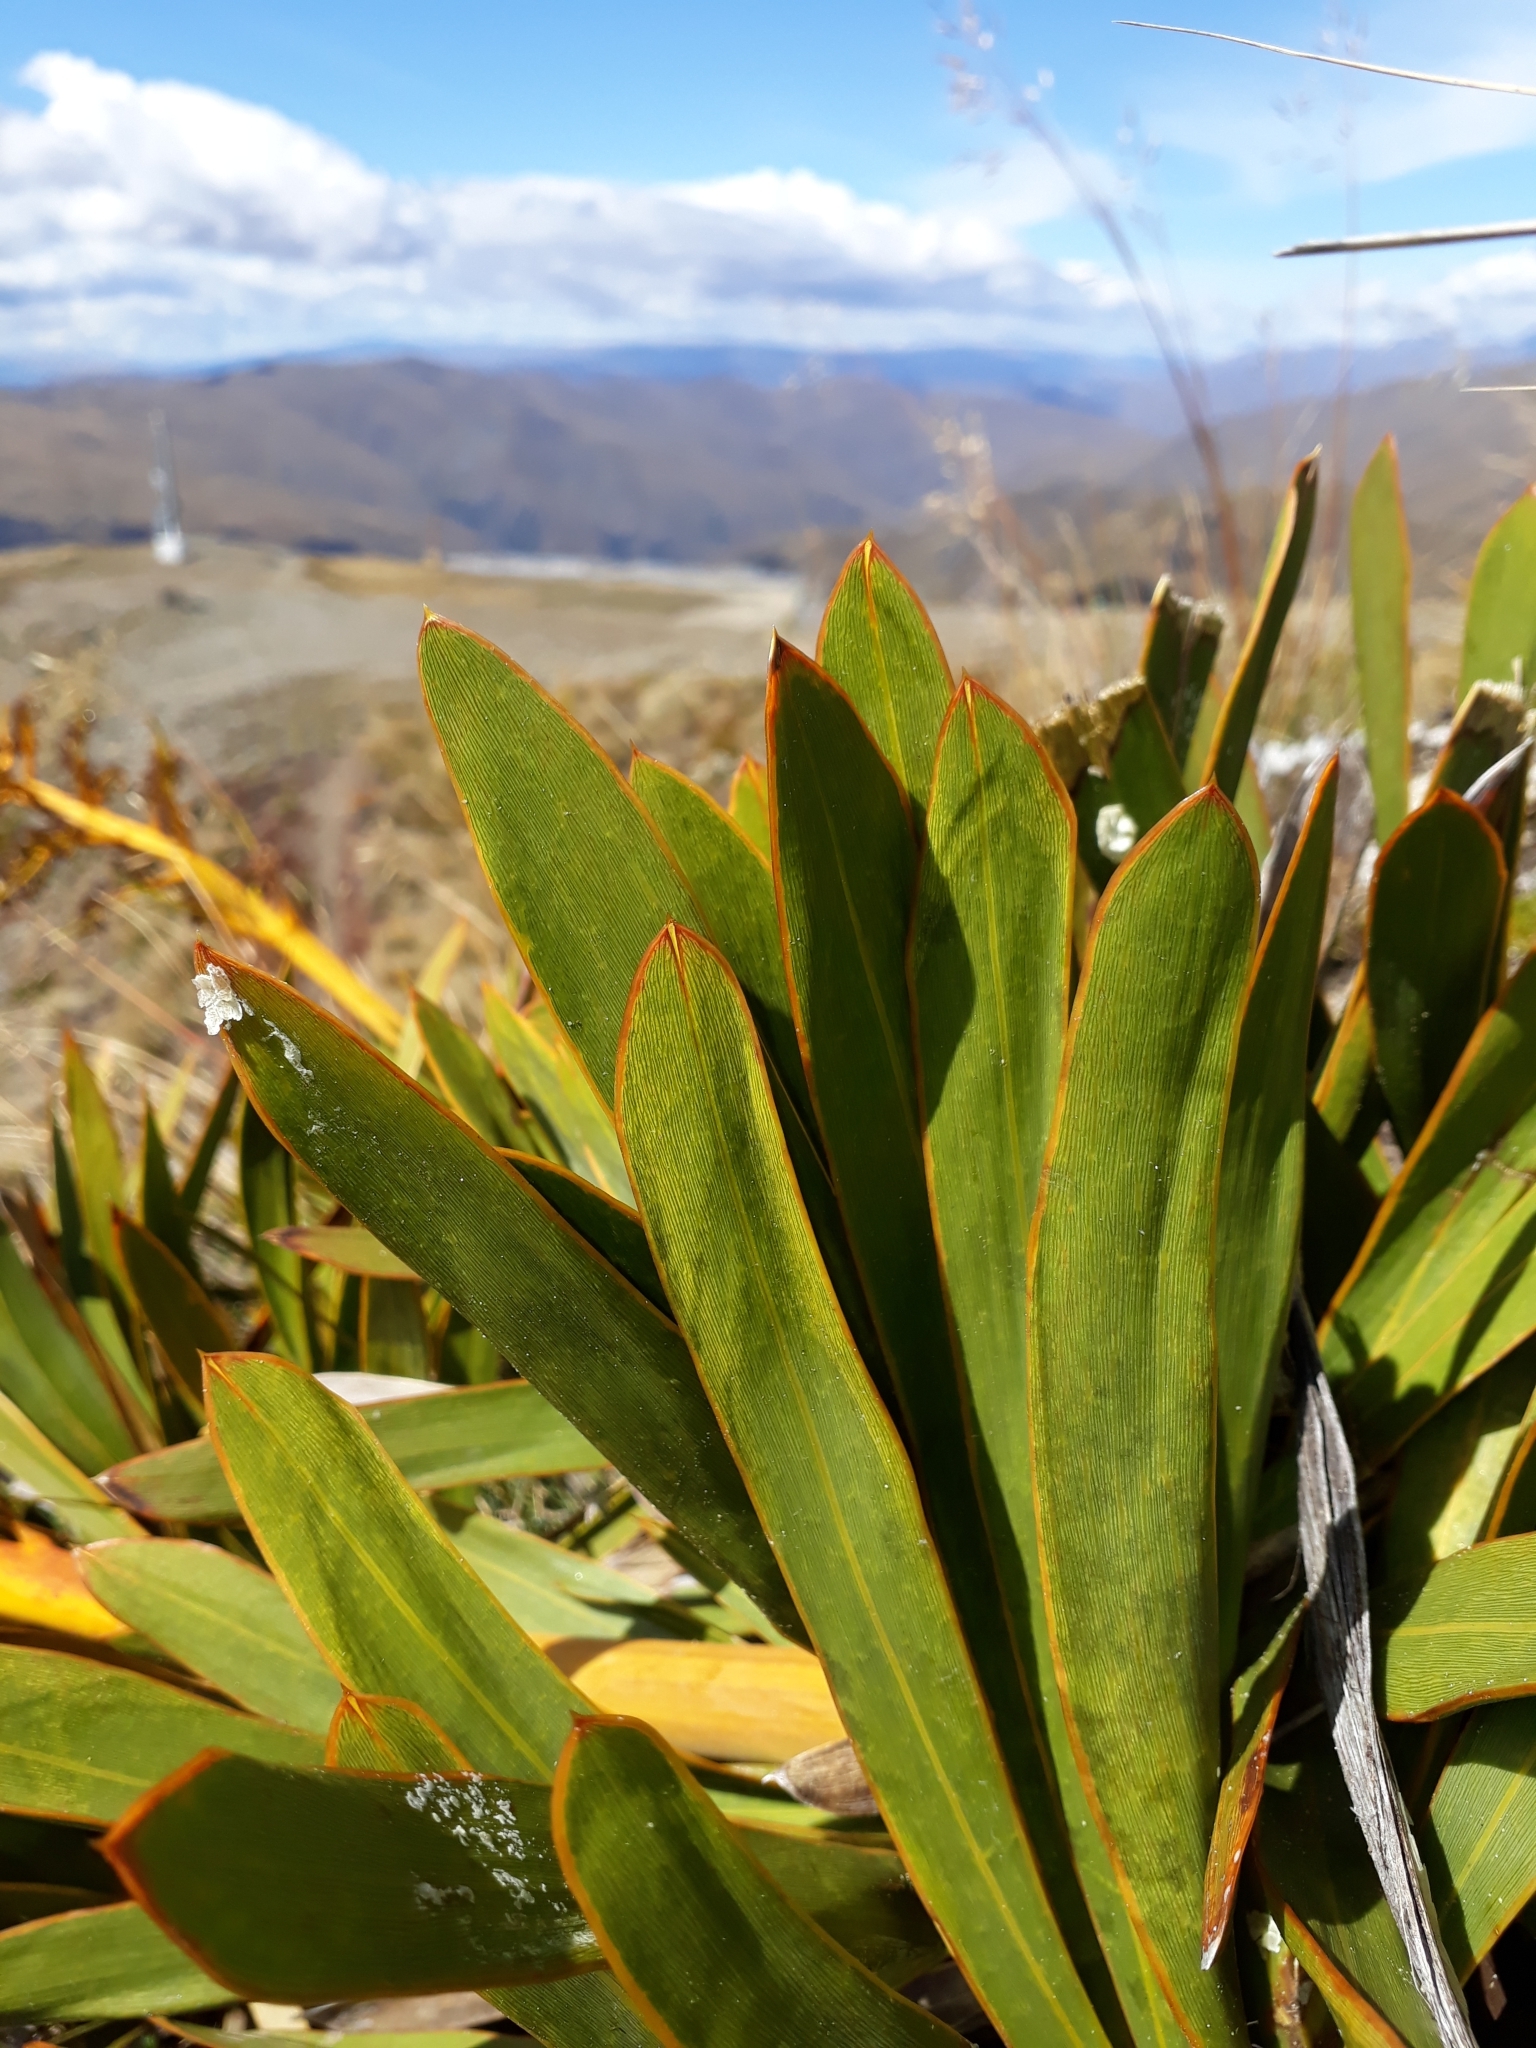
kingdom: Plantae
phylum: Tracheophyta
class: Magnoliopsida
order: Apiales
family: Apiaceae
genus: Aciphylla
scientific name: Aciphylla kirkii
